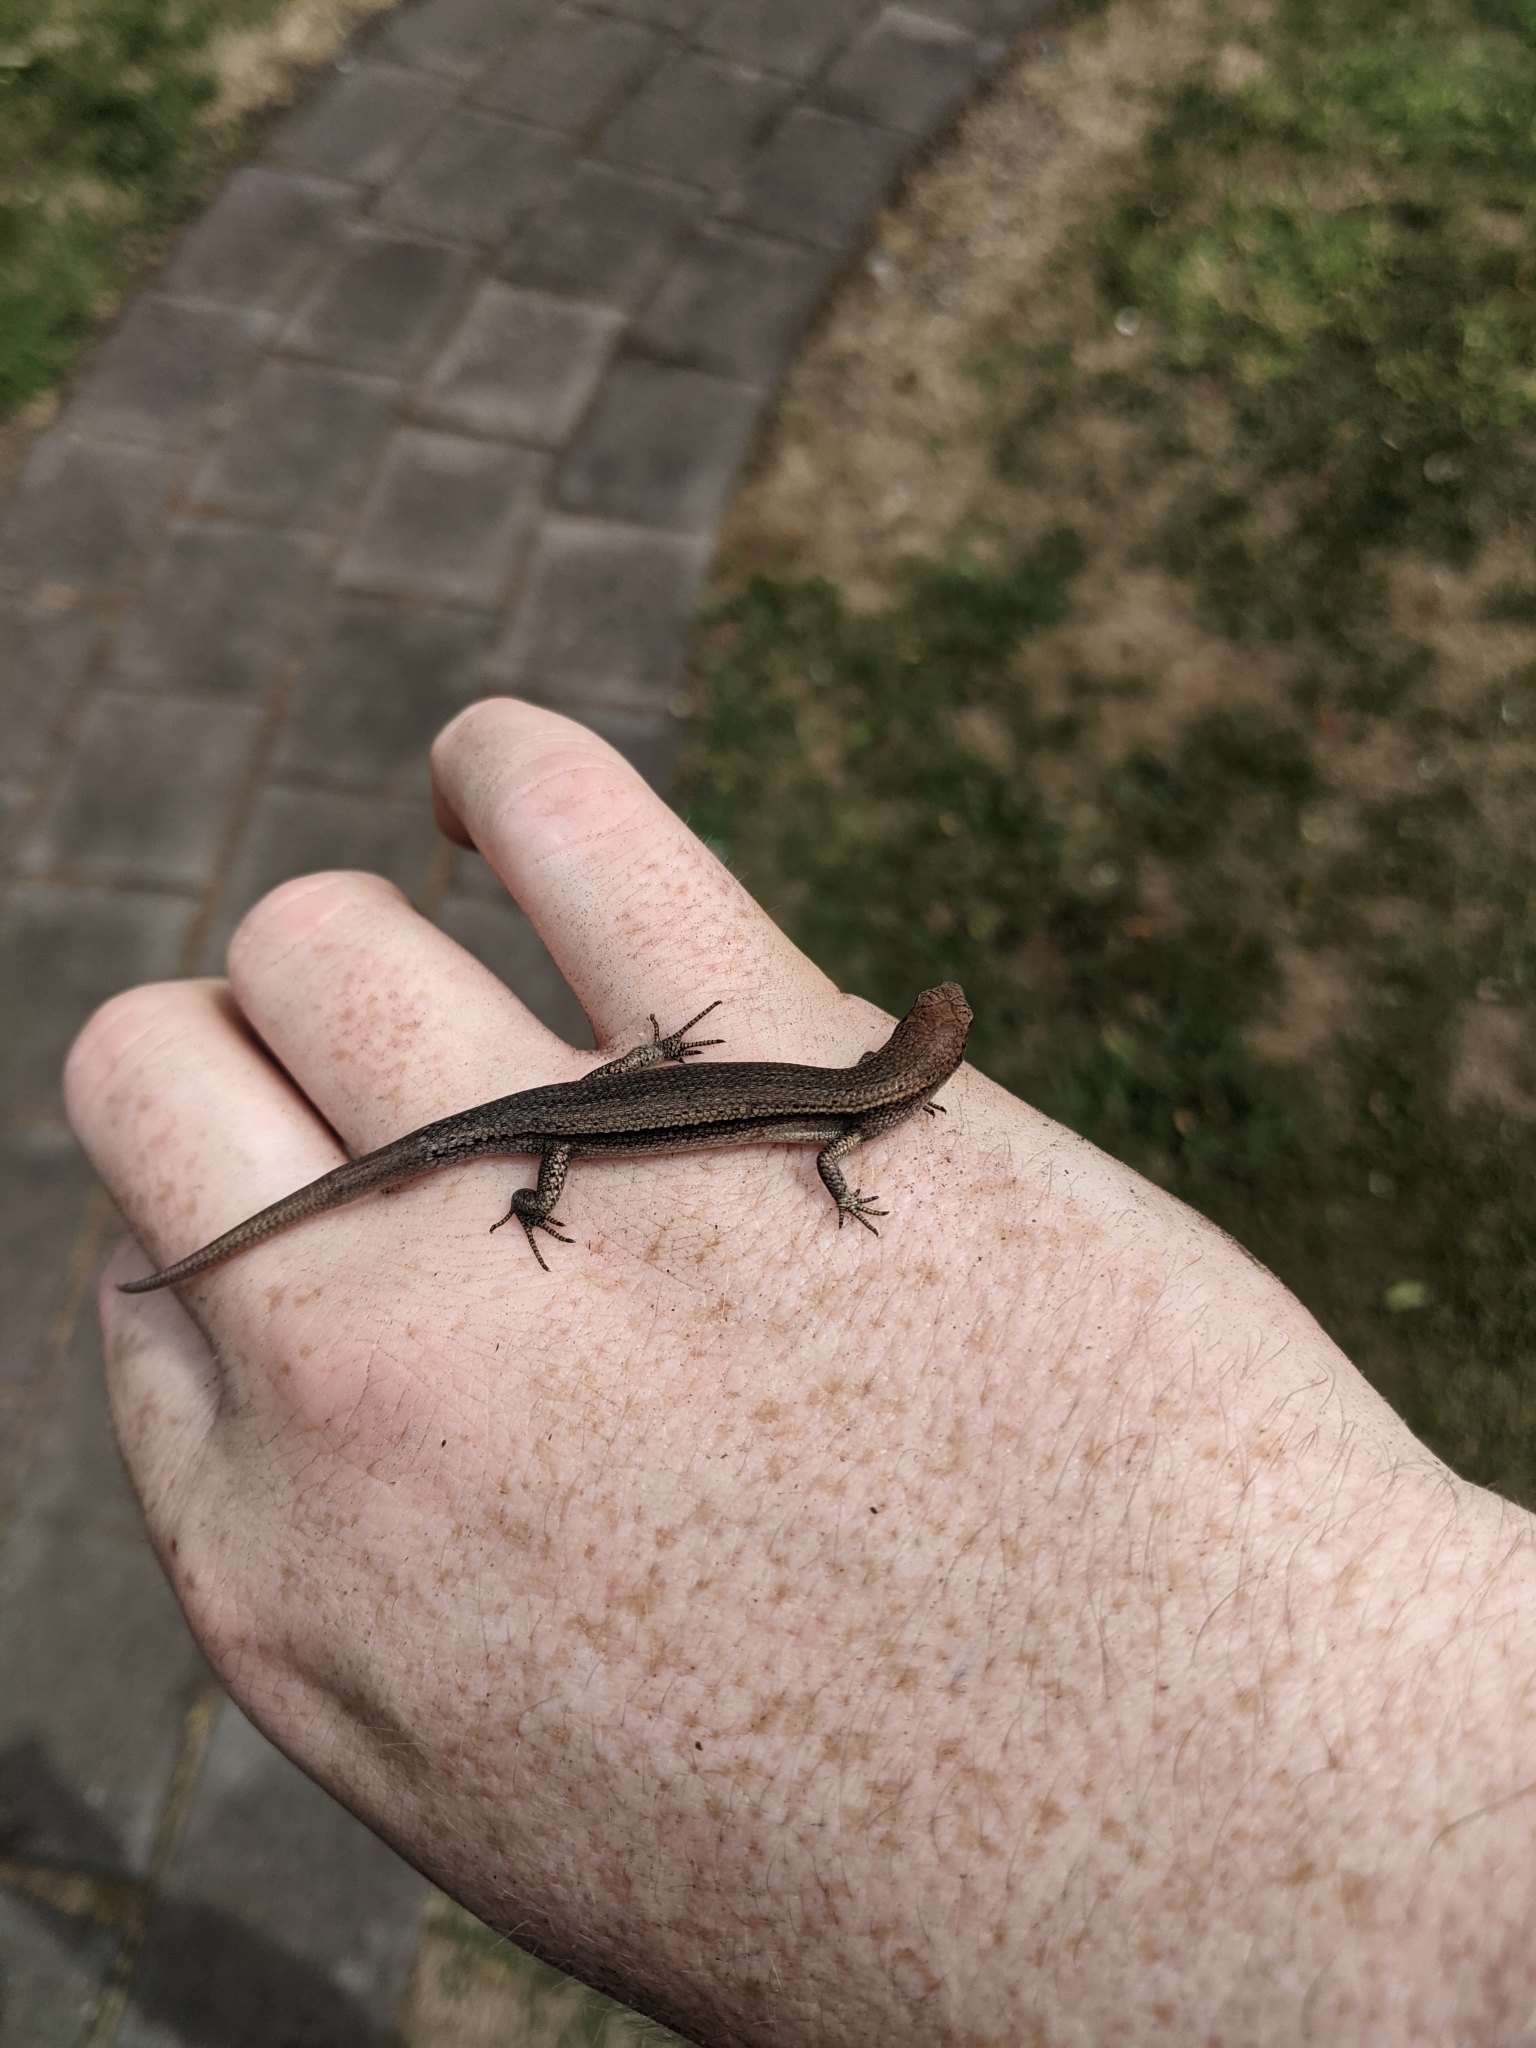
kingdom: Animalia
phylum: Chordata
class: Squamata
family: Scincidae
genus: Lampropholis
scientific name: Lampropholis delicata
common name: Plague skink
